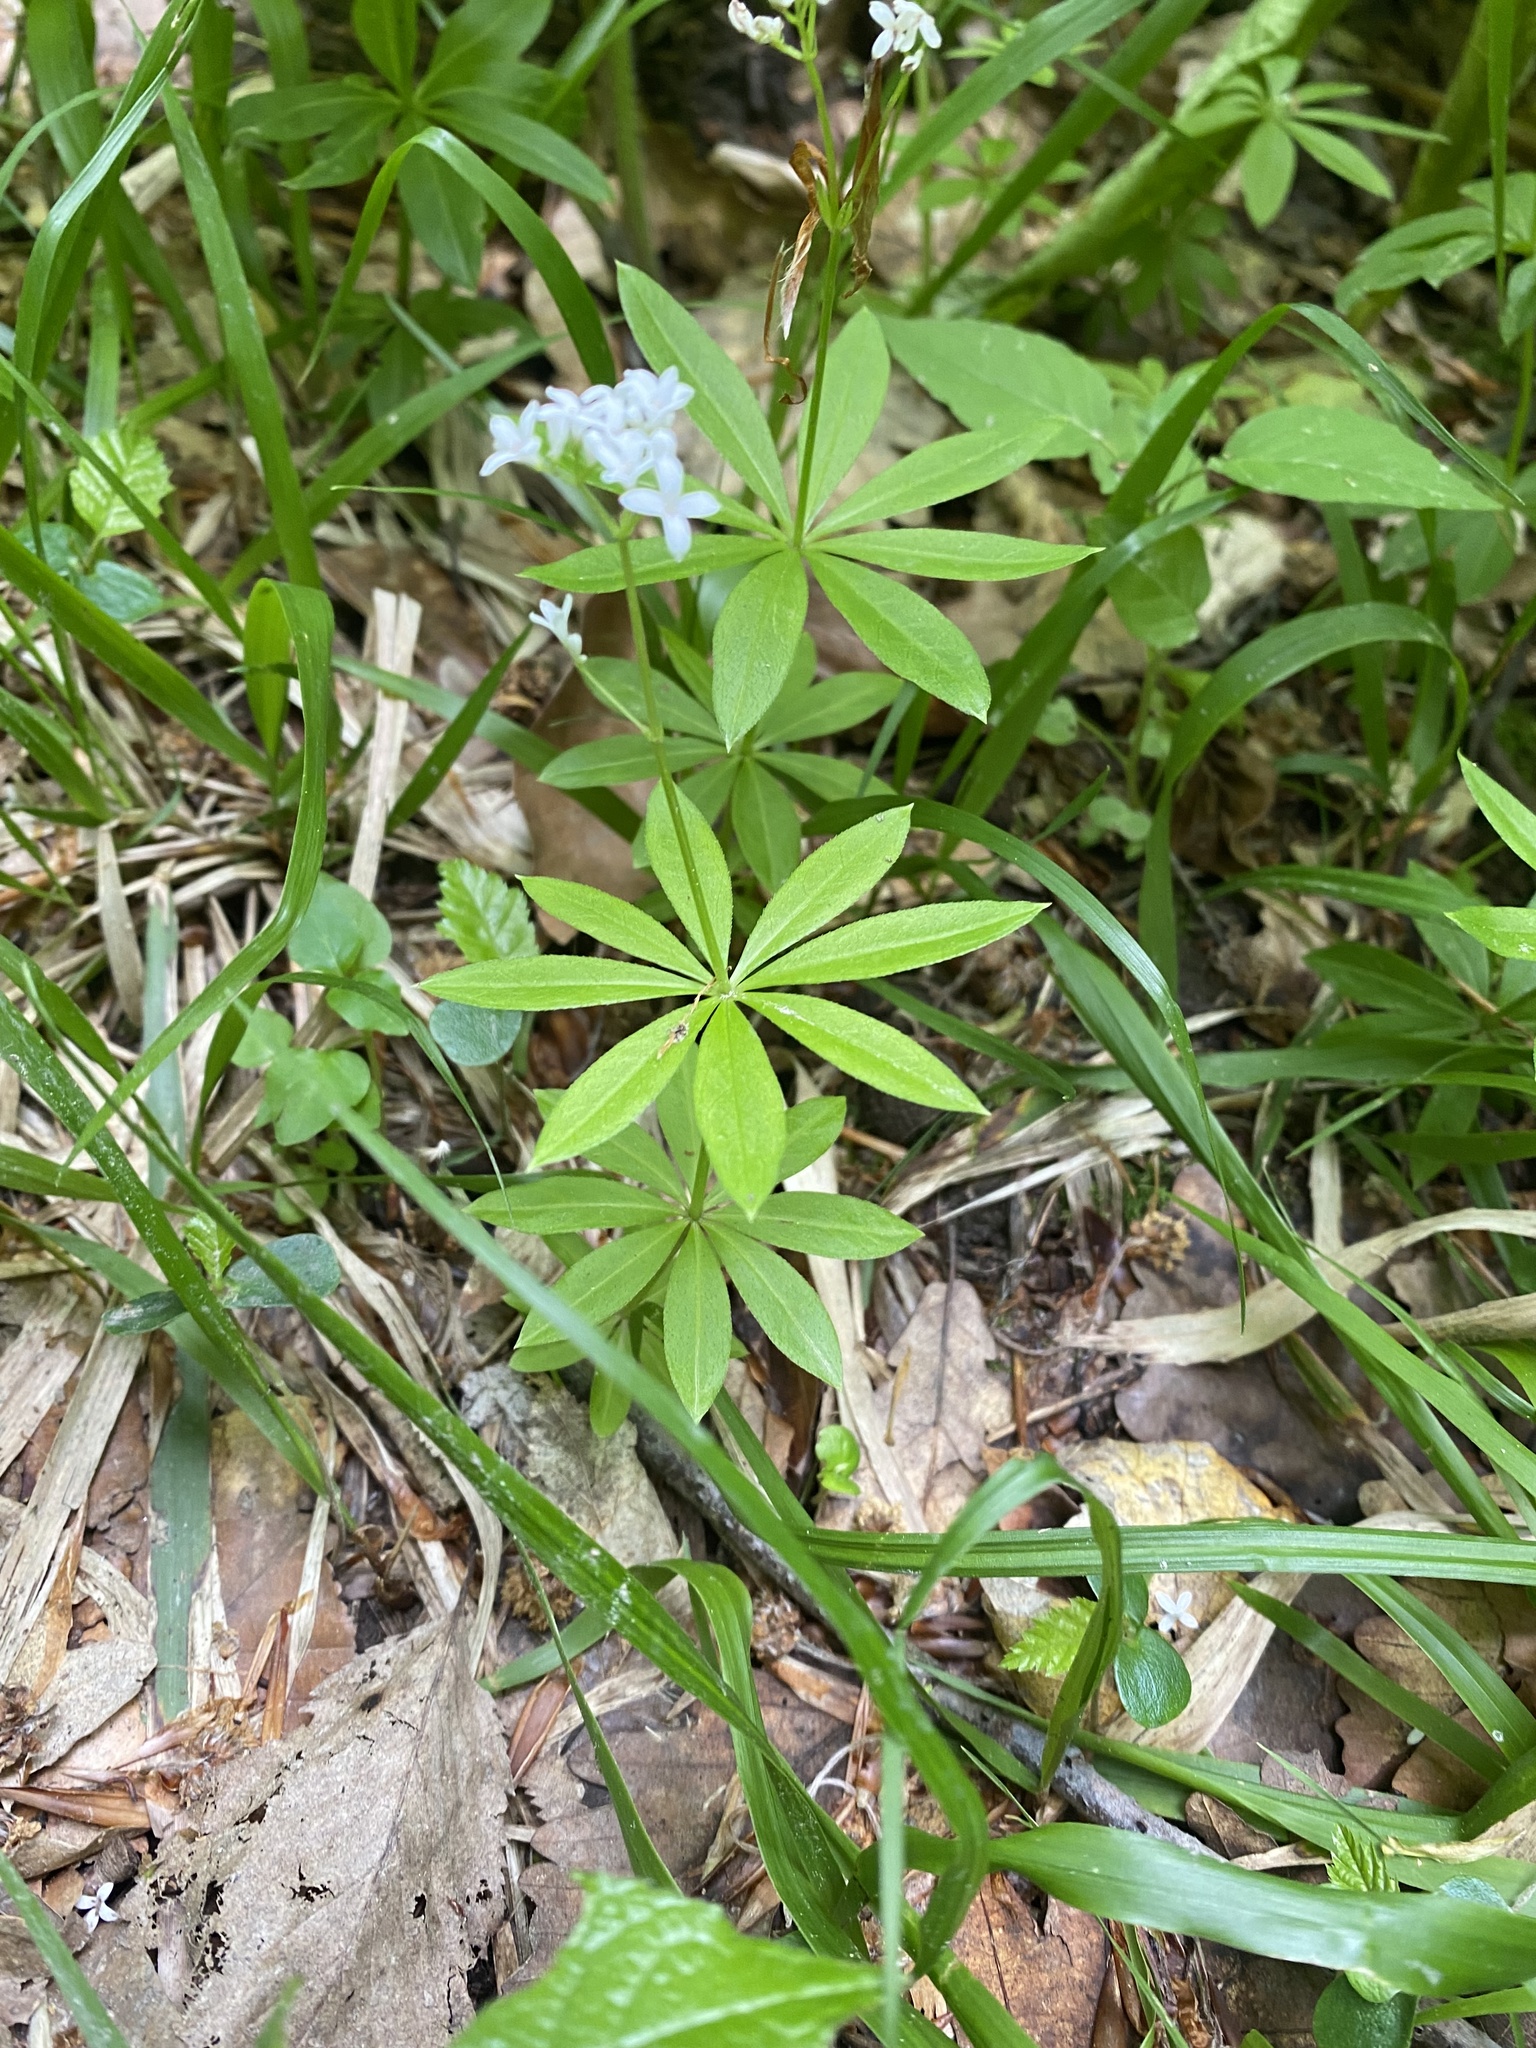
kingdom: Plantae
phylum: Tracheophyta
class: Magnoliopsida
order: Gentianales
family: Rubiaceae
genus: Galium
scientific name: Galium odoratum
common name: Sweet woodruff
